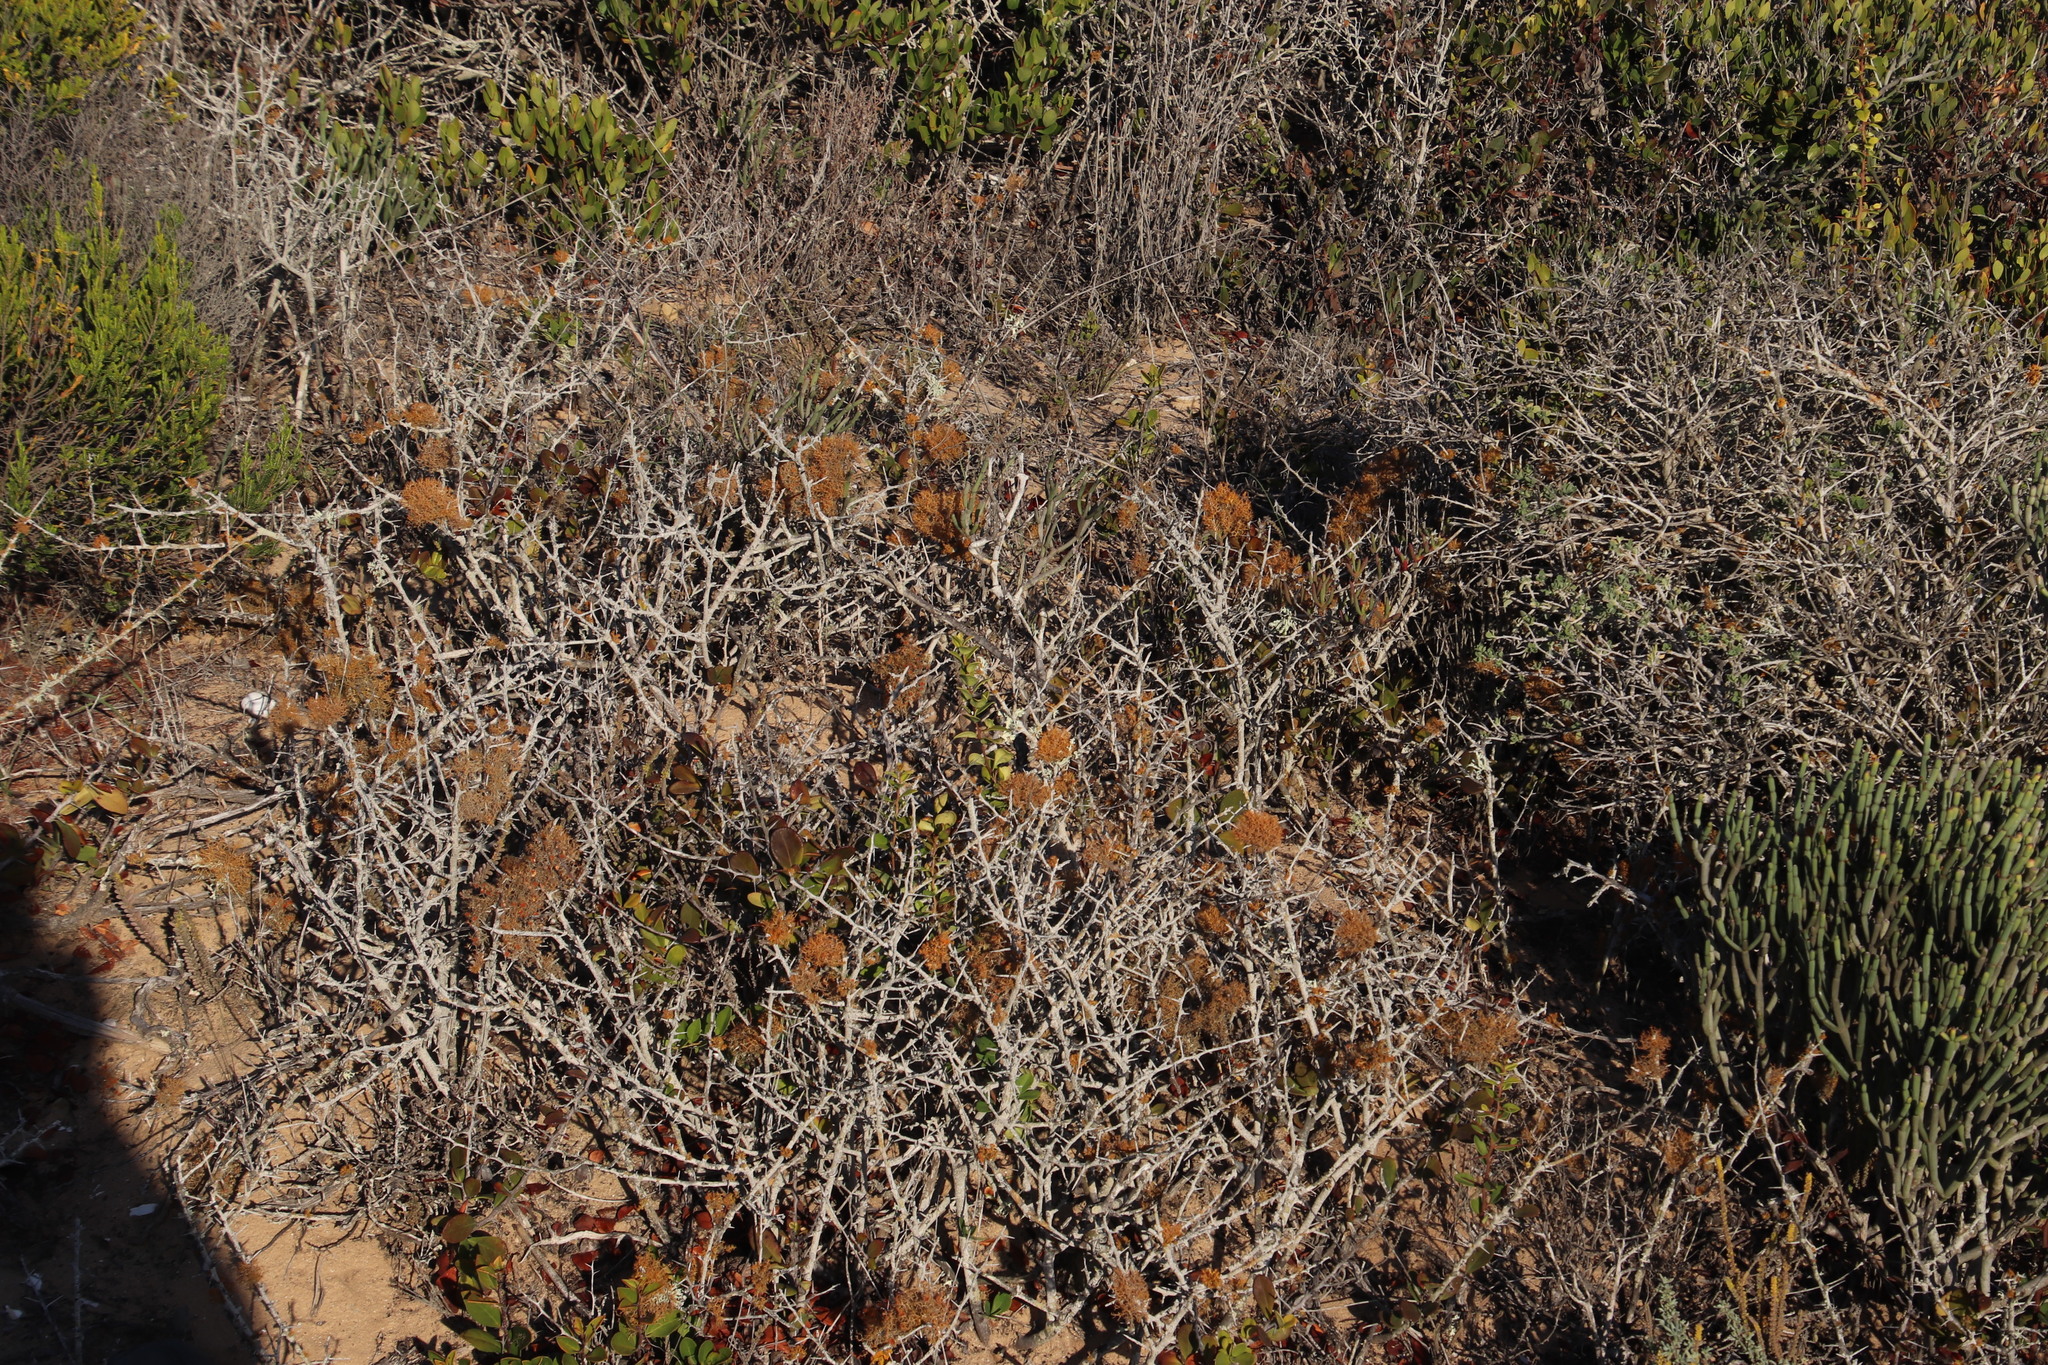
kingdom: Fungi
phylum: Ascomycota
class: Lecanoromycetes
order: Teloschistales
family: Teloschistaceae
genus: Teloschistes
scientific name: Teloschistes capensis
